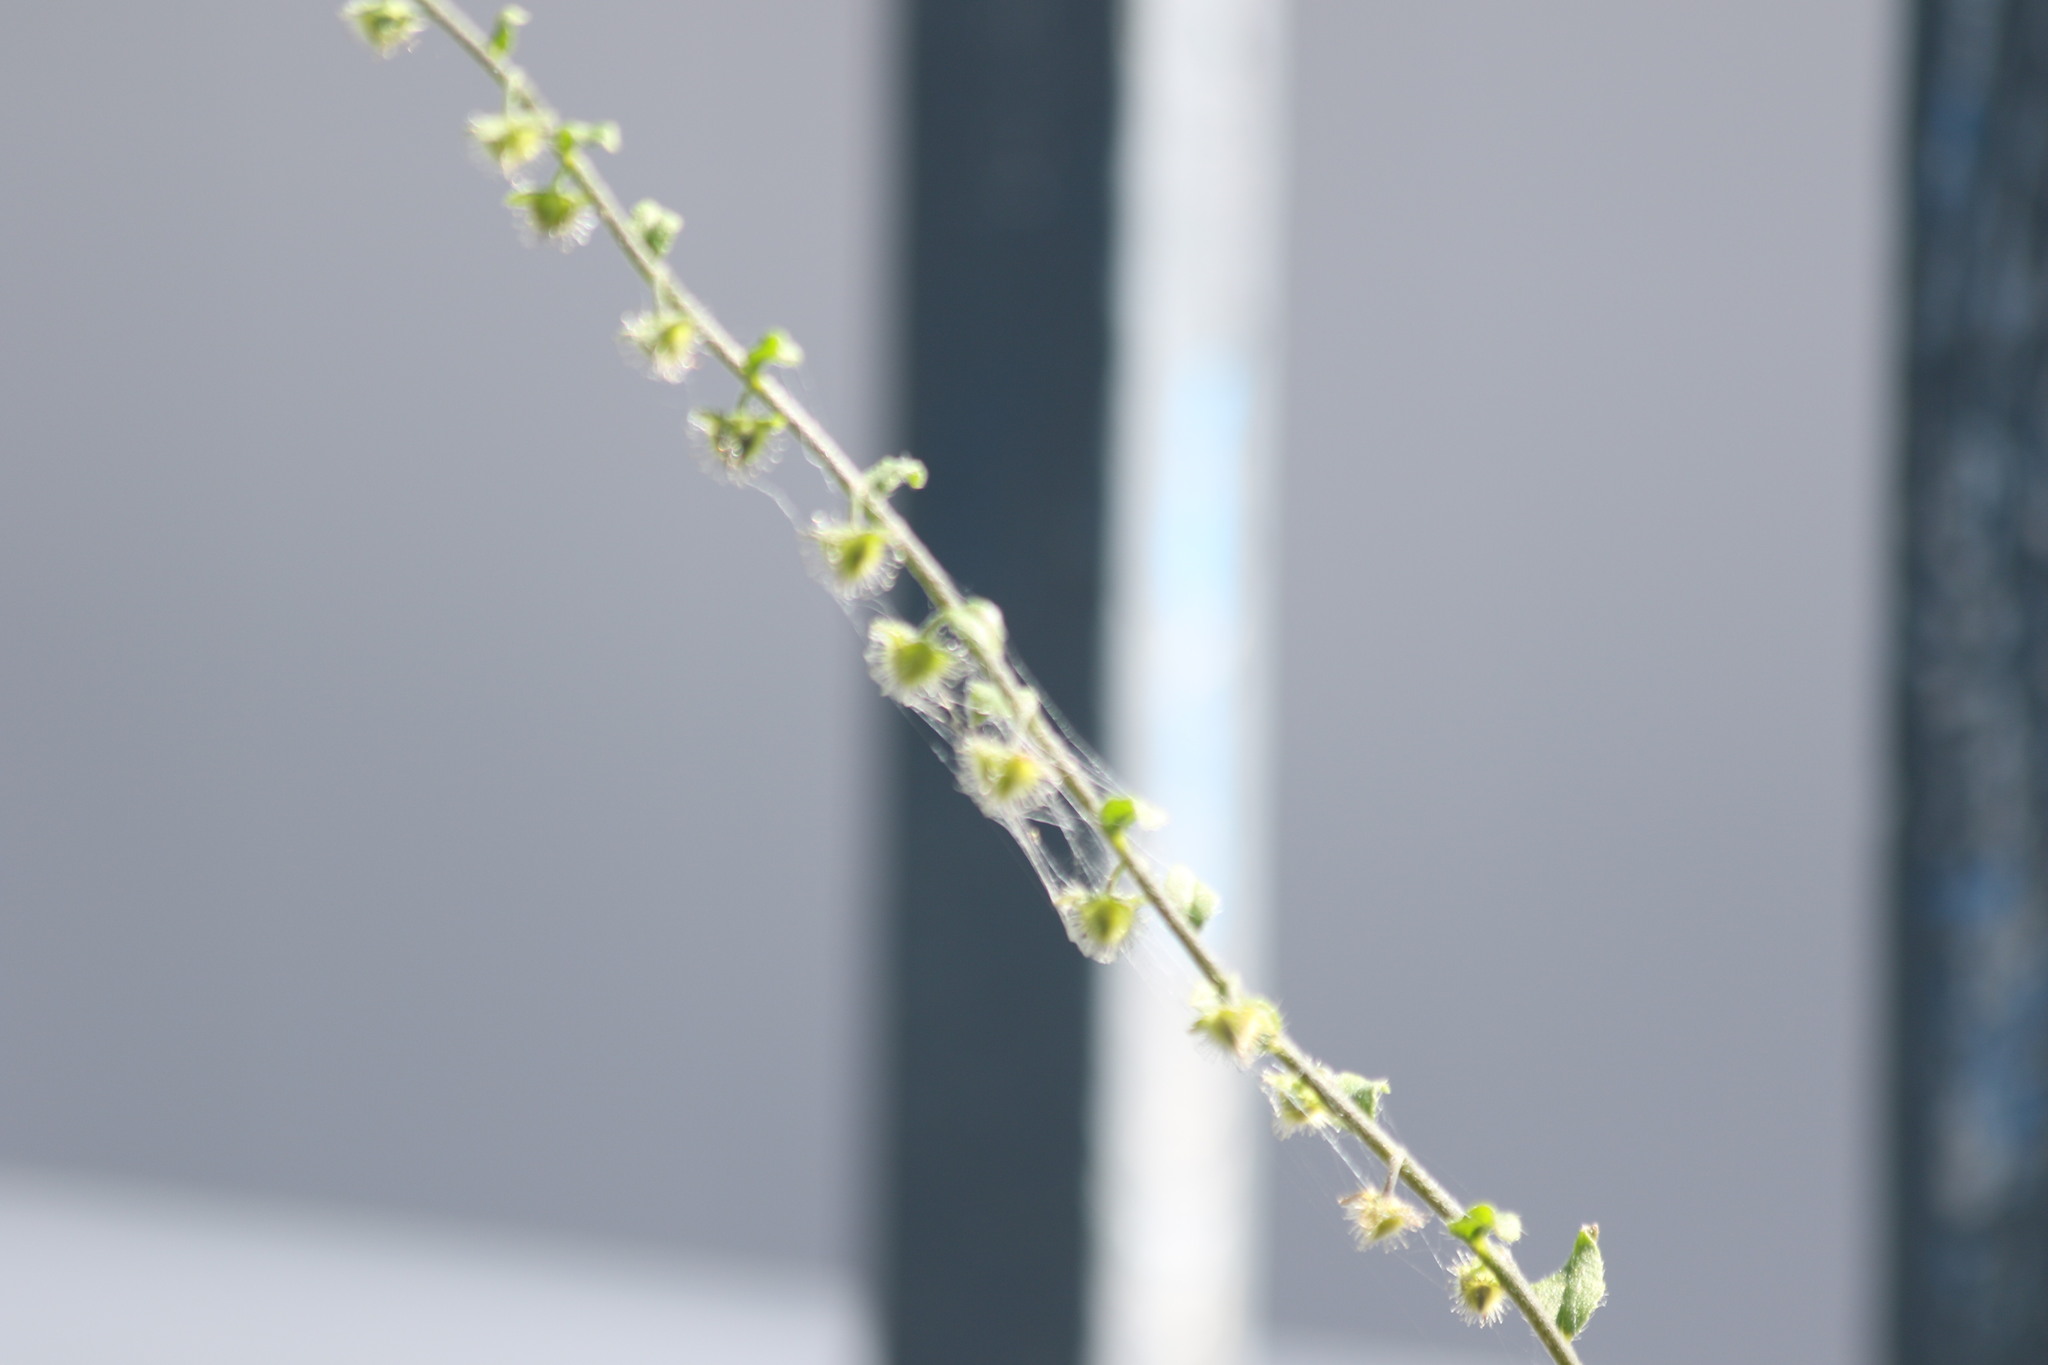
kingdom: Plantae
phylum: Tracheophyta
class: Magnoliopsida
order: Boraginales
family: Boraginaceae
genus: Hackelia
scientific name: Hackelia deflexa
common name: Nodding stickseed
